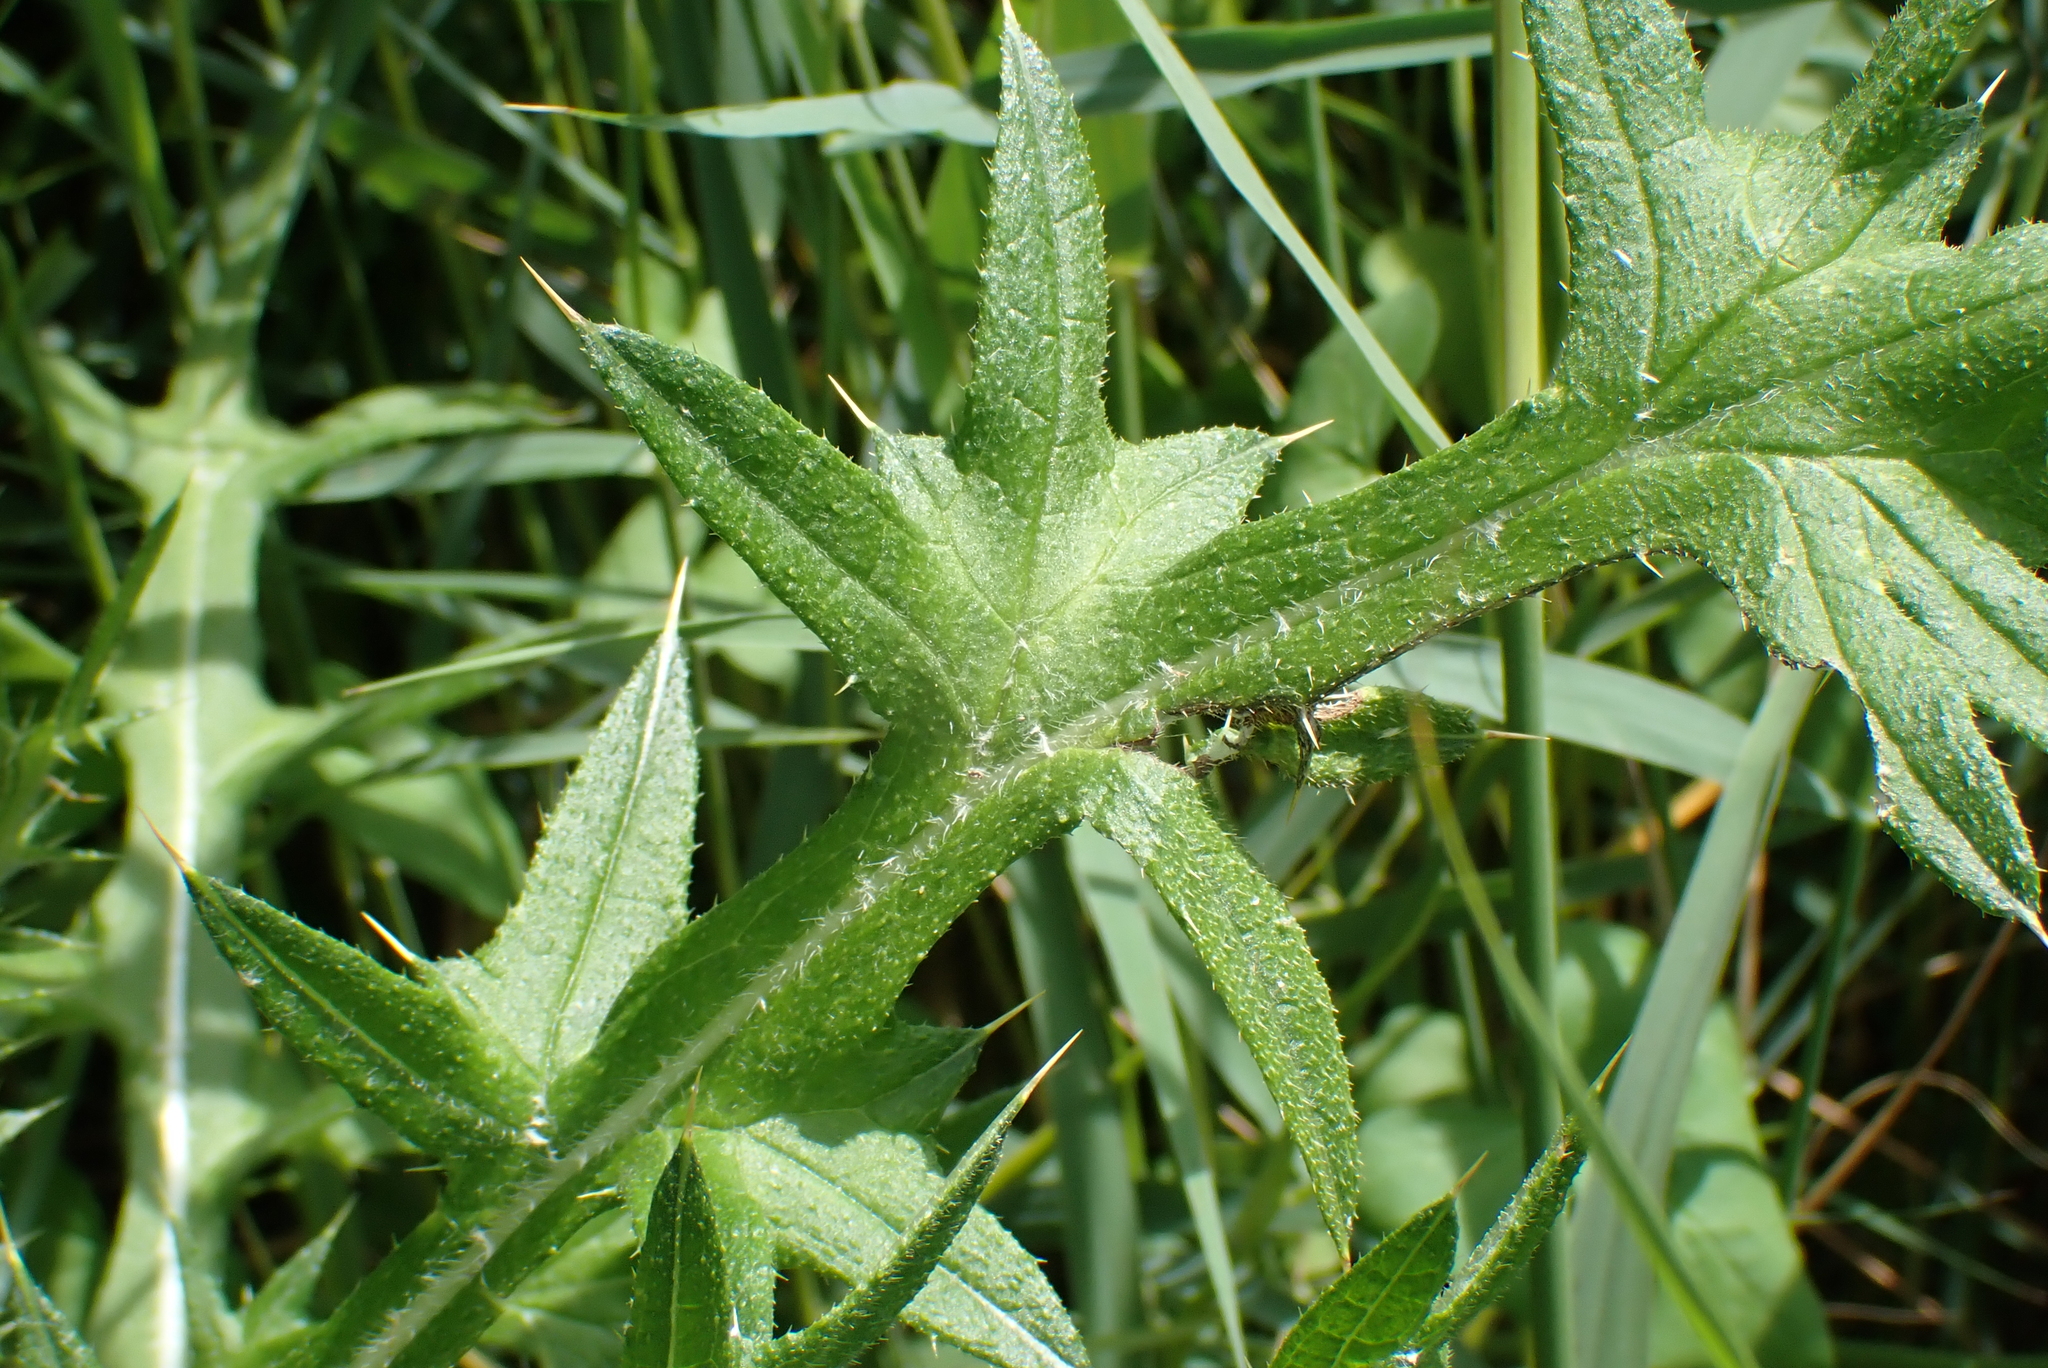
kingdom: Plantae
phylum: Tracheophyta
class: Magnoliopsida
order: Asterales
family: Asteraceae
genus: Cirsium
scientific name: Cirsium vulgare
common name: Bull thistle
